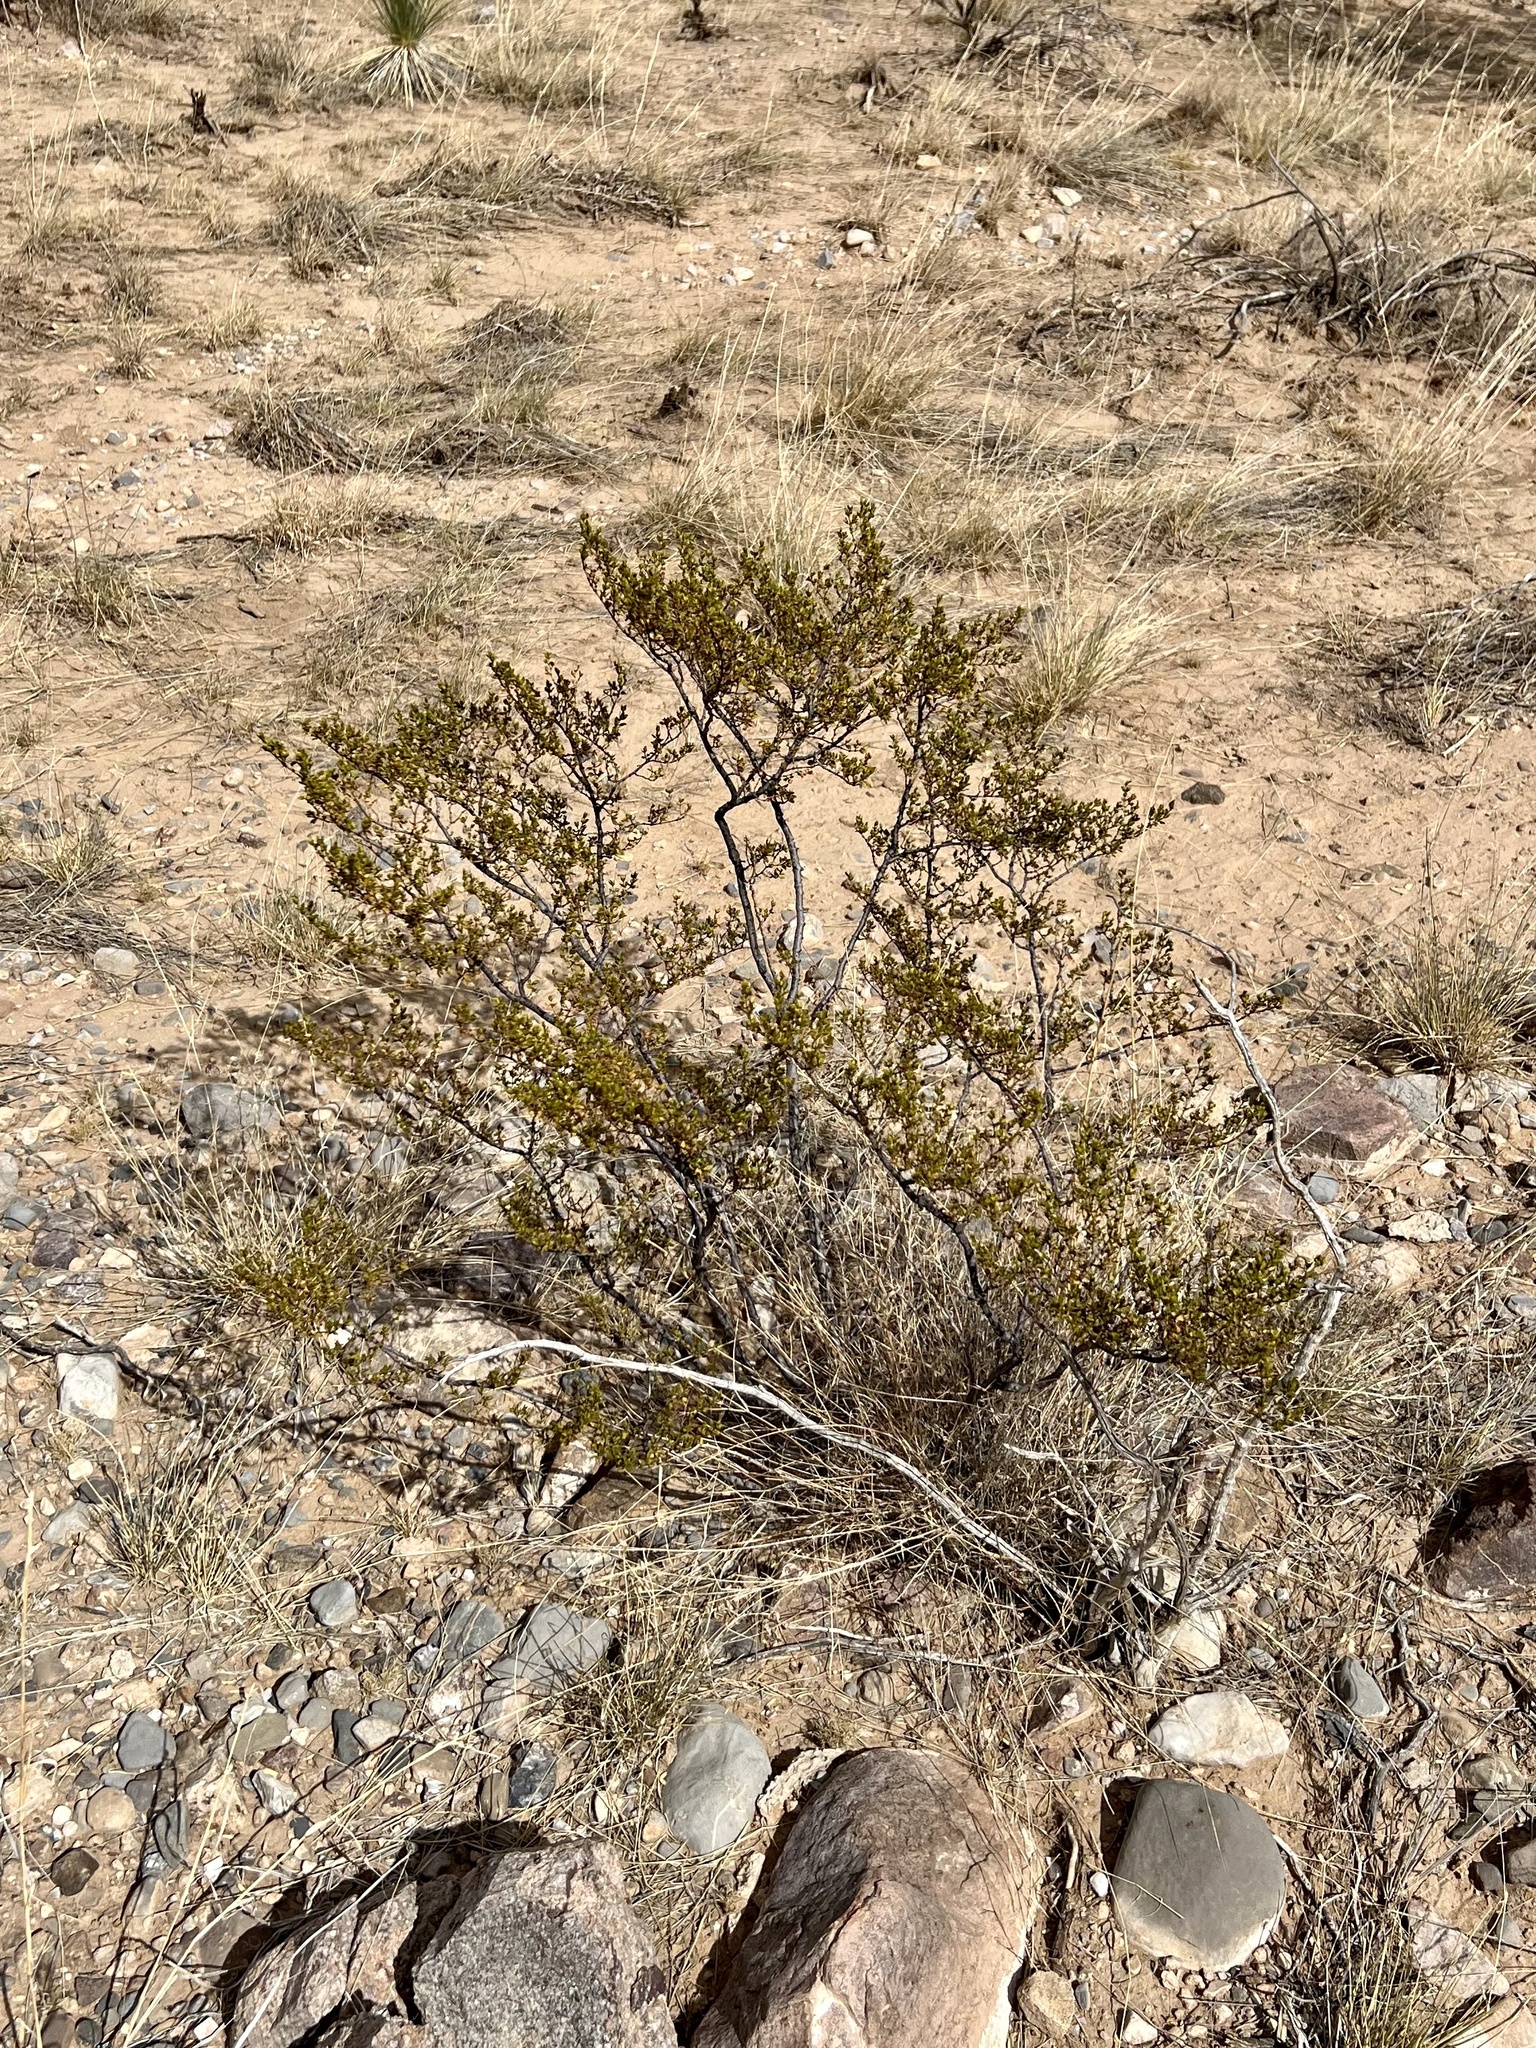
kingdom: Plantae
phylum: Tracheophyta
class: Magnoliopsida
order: Zygophyllales
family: Zygophyllaceae
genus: Larrea
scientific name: Larrea tridentata
